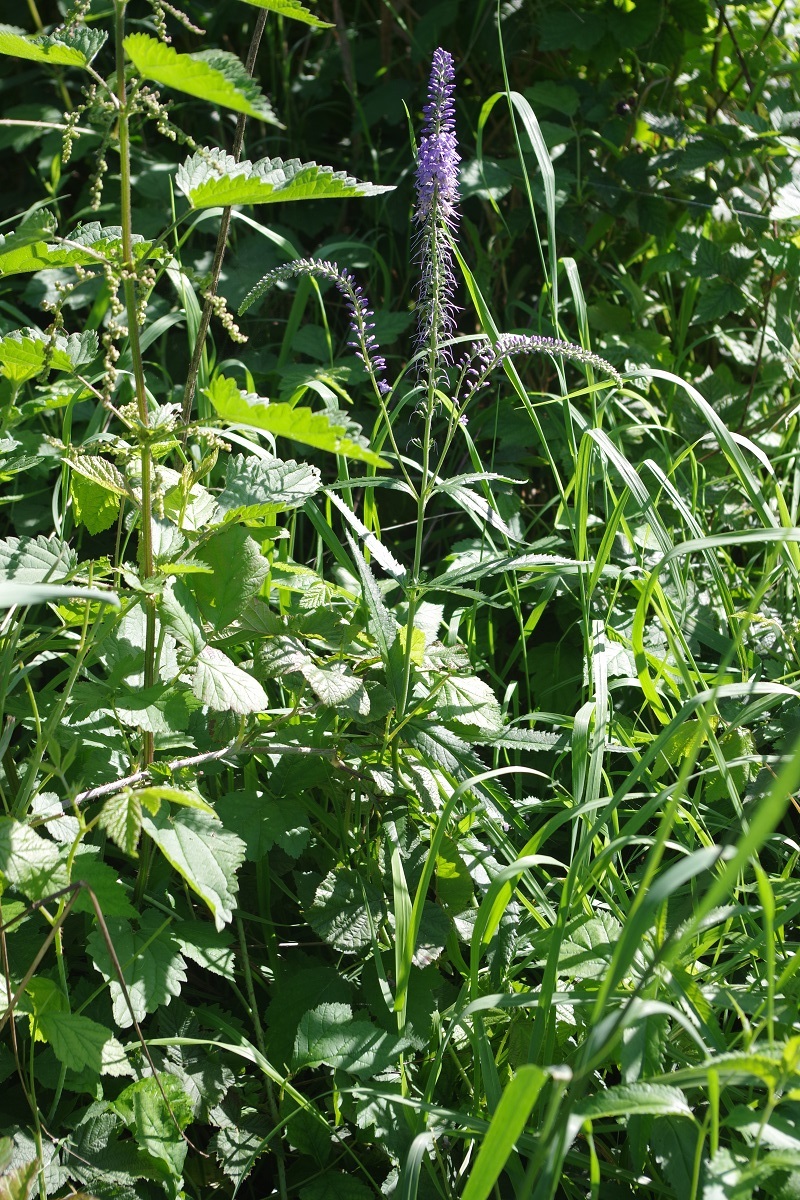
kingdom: Plantae
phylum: Tracheophyta
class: Magnoliopsida
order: Lamiales
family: Plantaginaceae
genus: Veronica
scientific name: Veronica longifolia
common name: Garden speedwell
